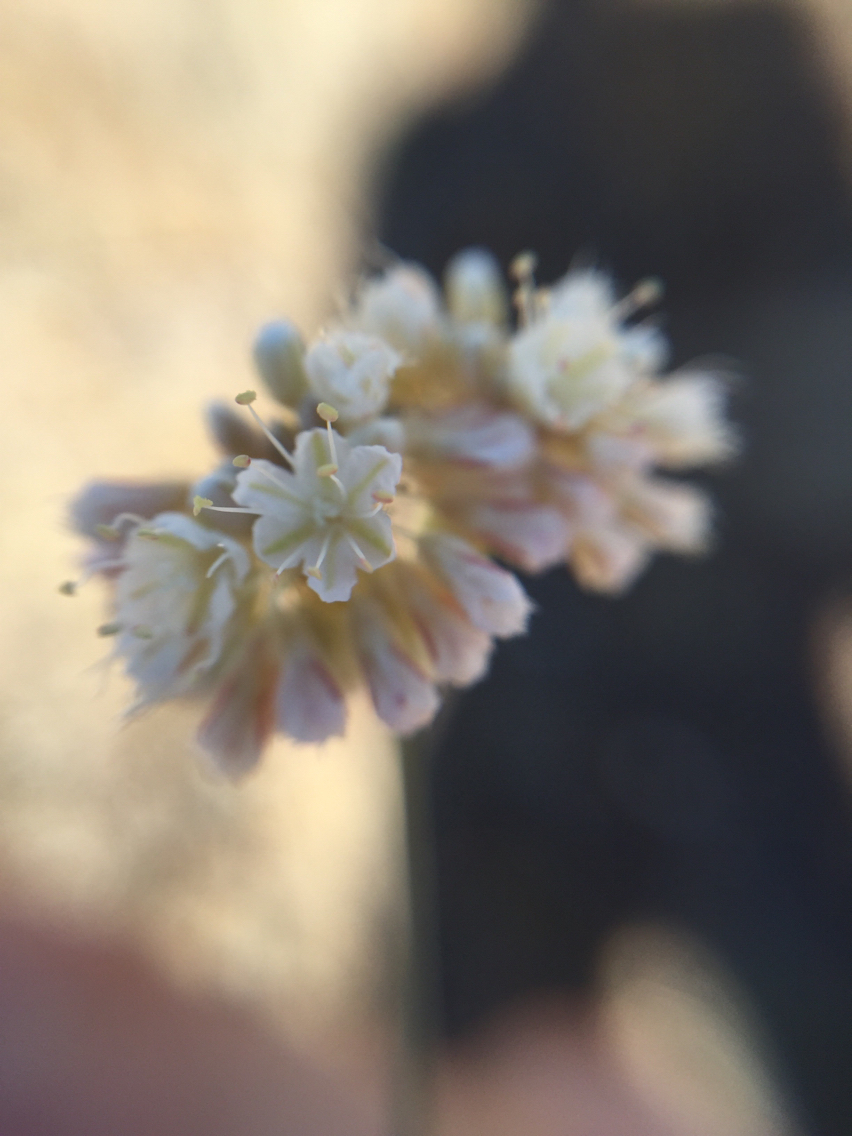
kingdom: Plantae
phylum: Tracheophyta
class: Magnoliopsida
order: Caryophyllales
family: Polygonaceae
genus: Eriogonum
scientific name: Eriogonum nudum
